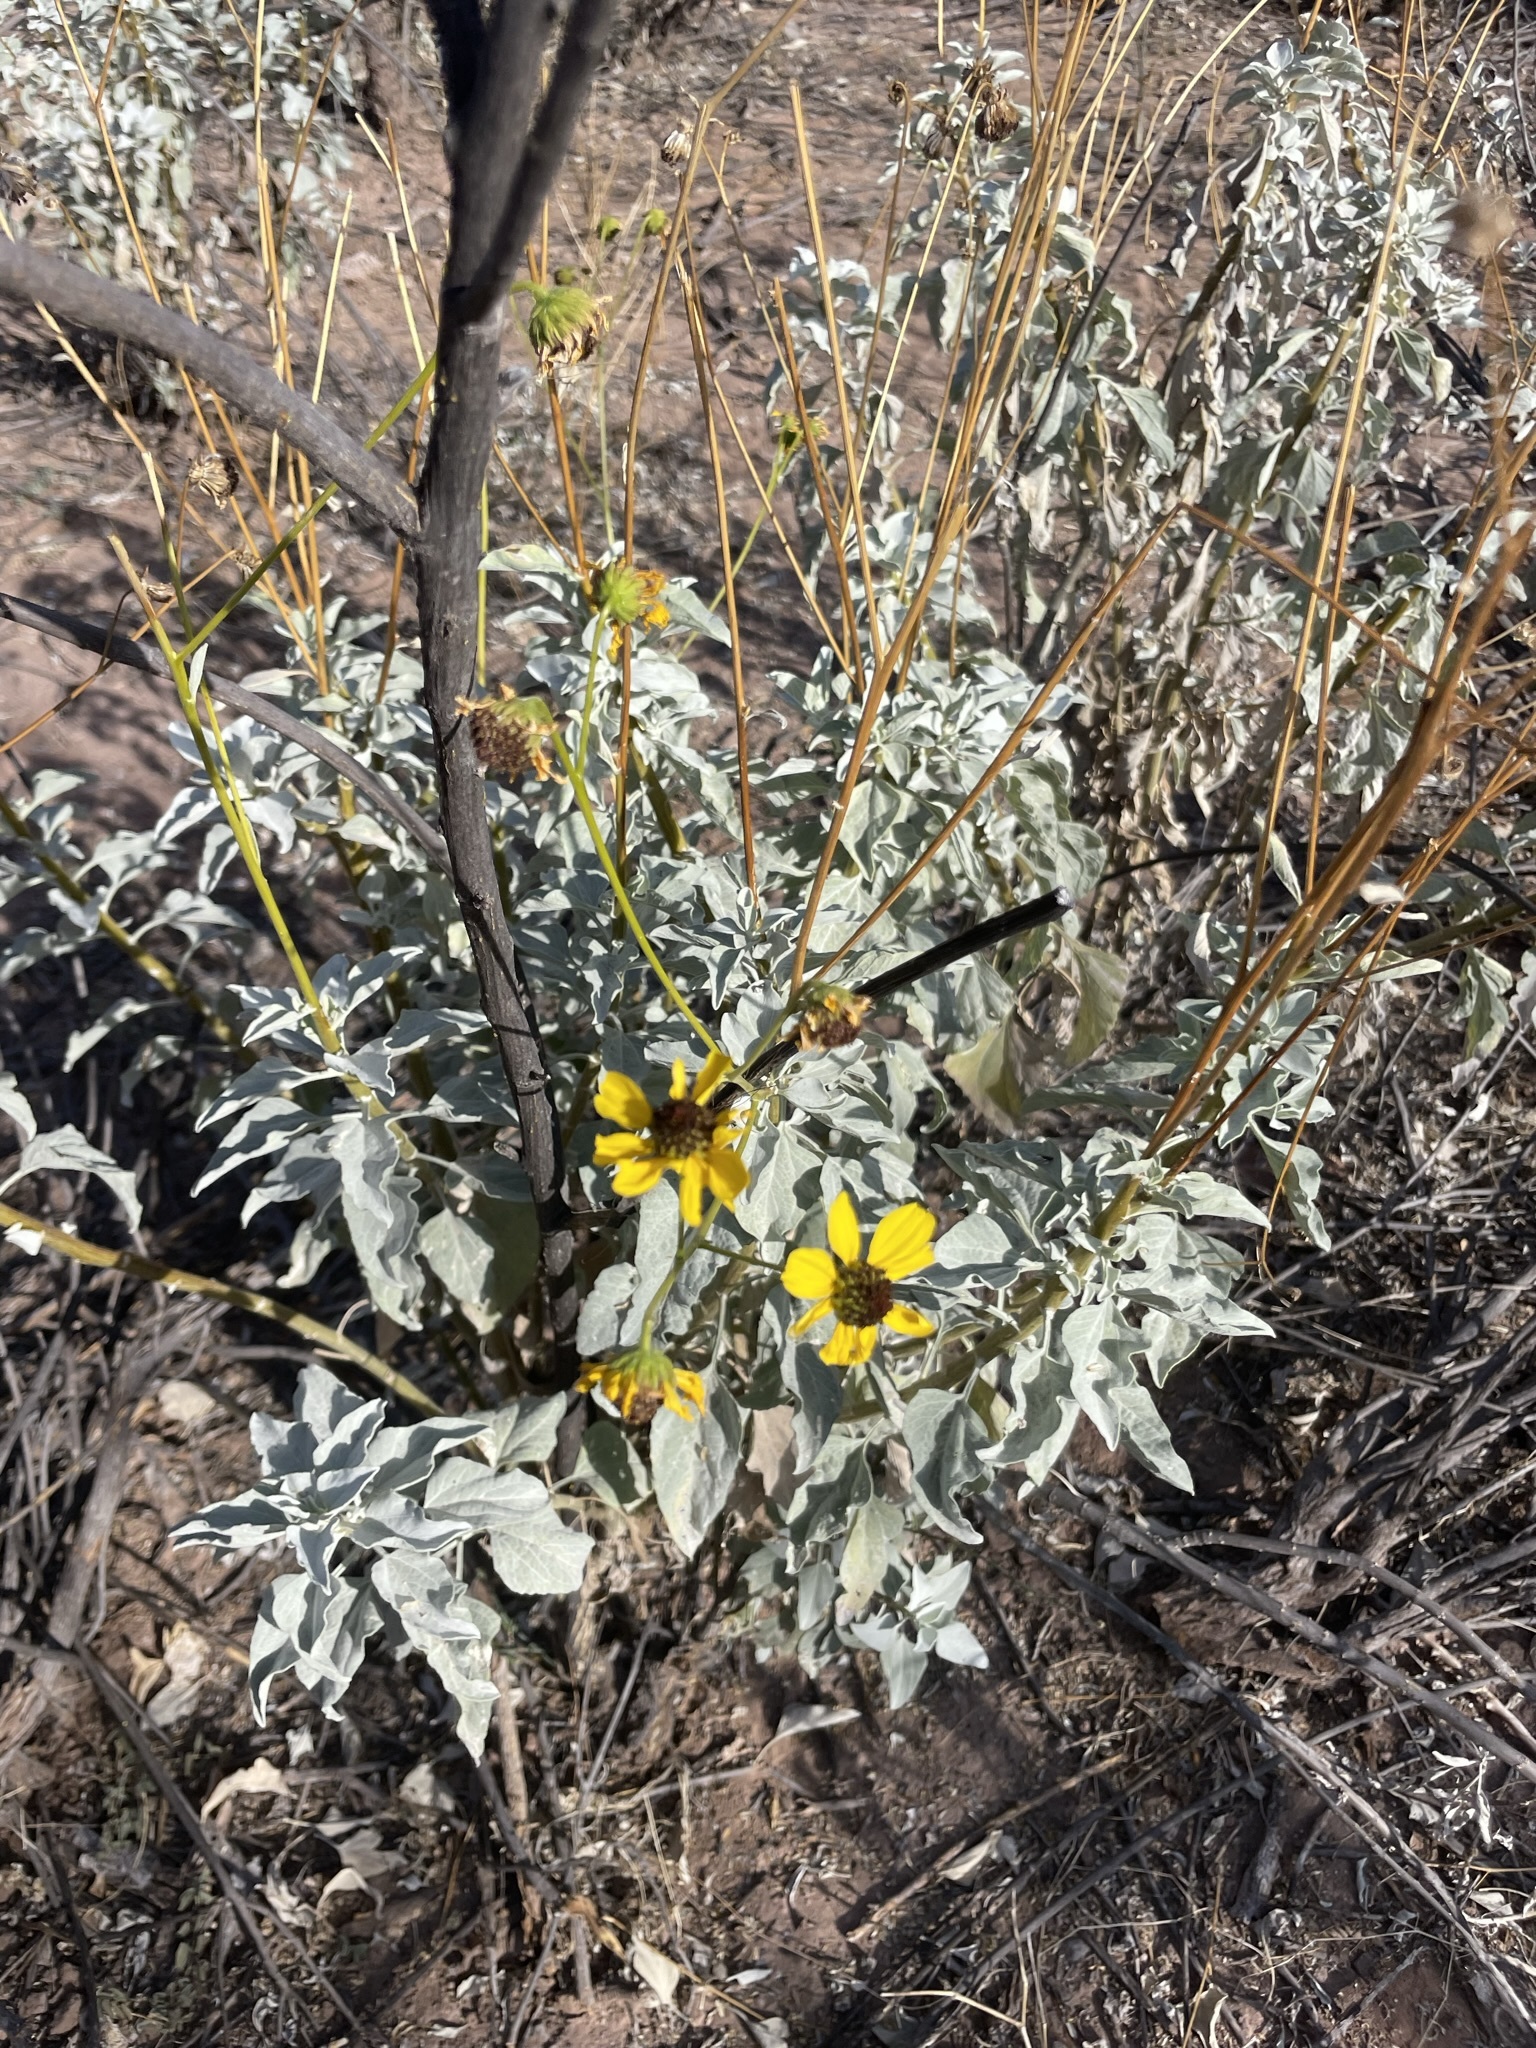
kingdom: Plantae
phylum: Tracheophyta
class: Magnoliopsida
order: Asterales
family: Asteraceae
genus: Encelia
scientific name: Encelia farinosa
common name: Brittlebush
